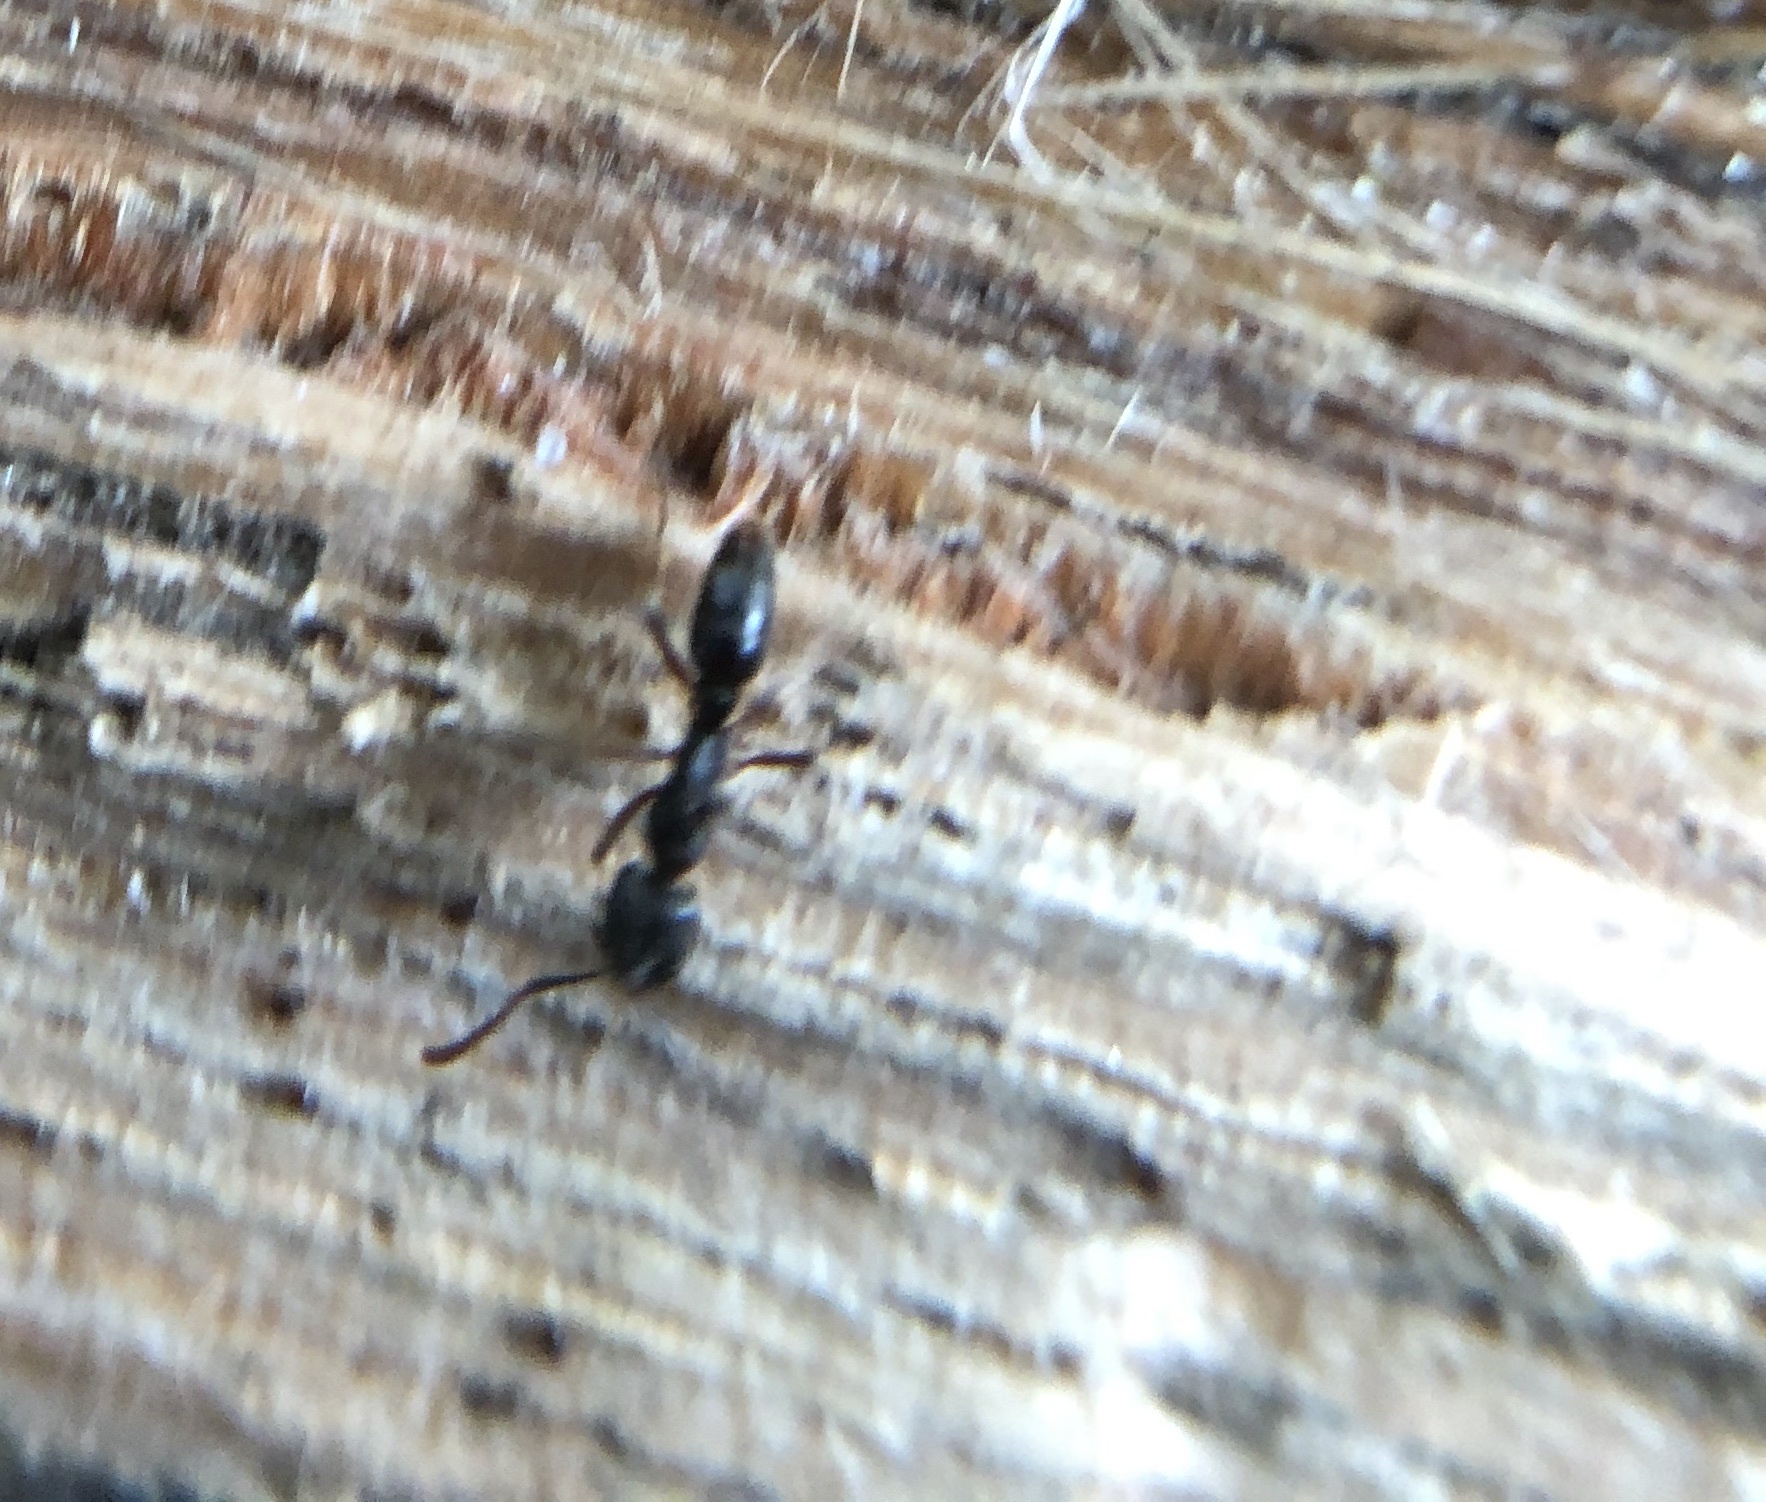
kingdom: Animalia
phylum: Arthropoda
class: Insecta
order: Hymenoptera
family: Formicidae
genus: Pachycondyla
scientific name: Pachycondyla chinensis
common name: Asian needle ant
